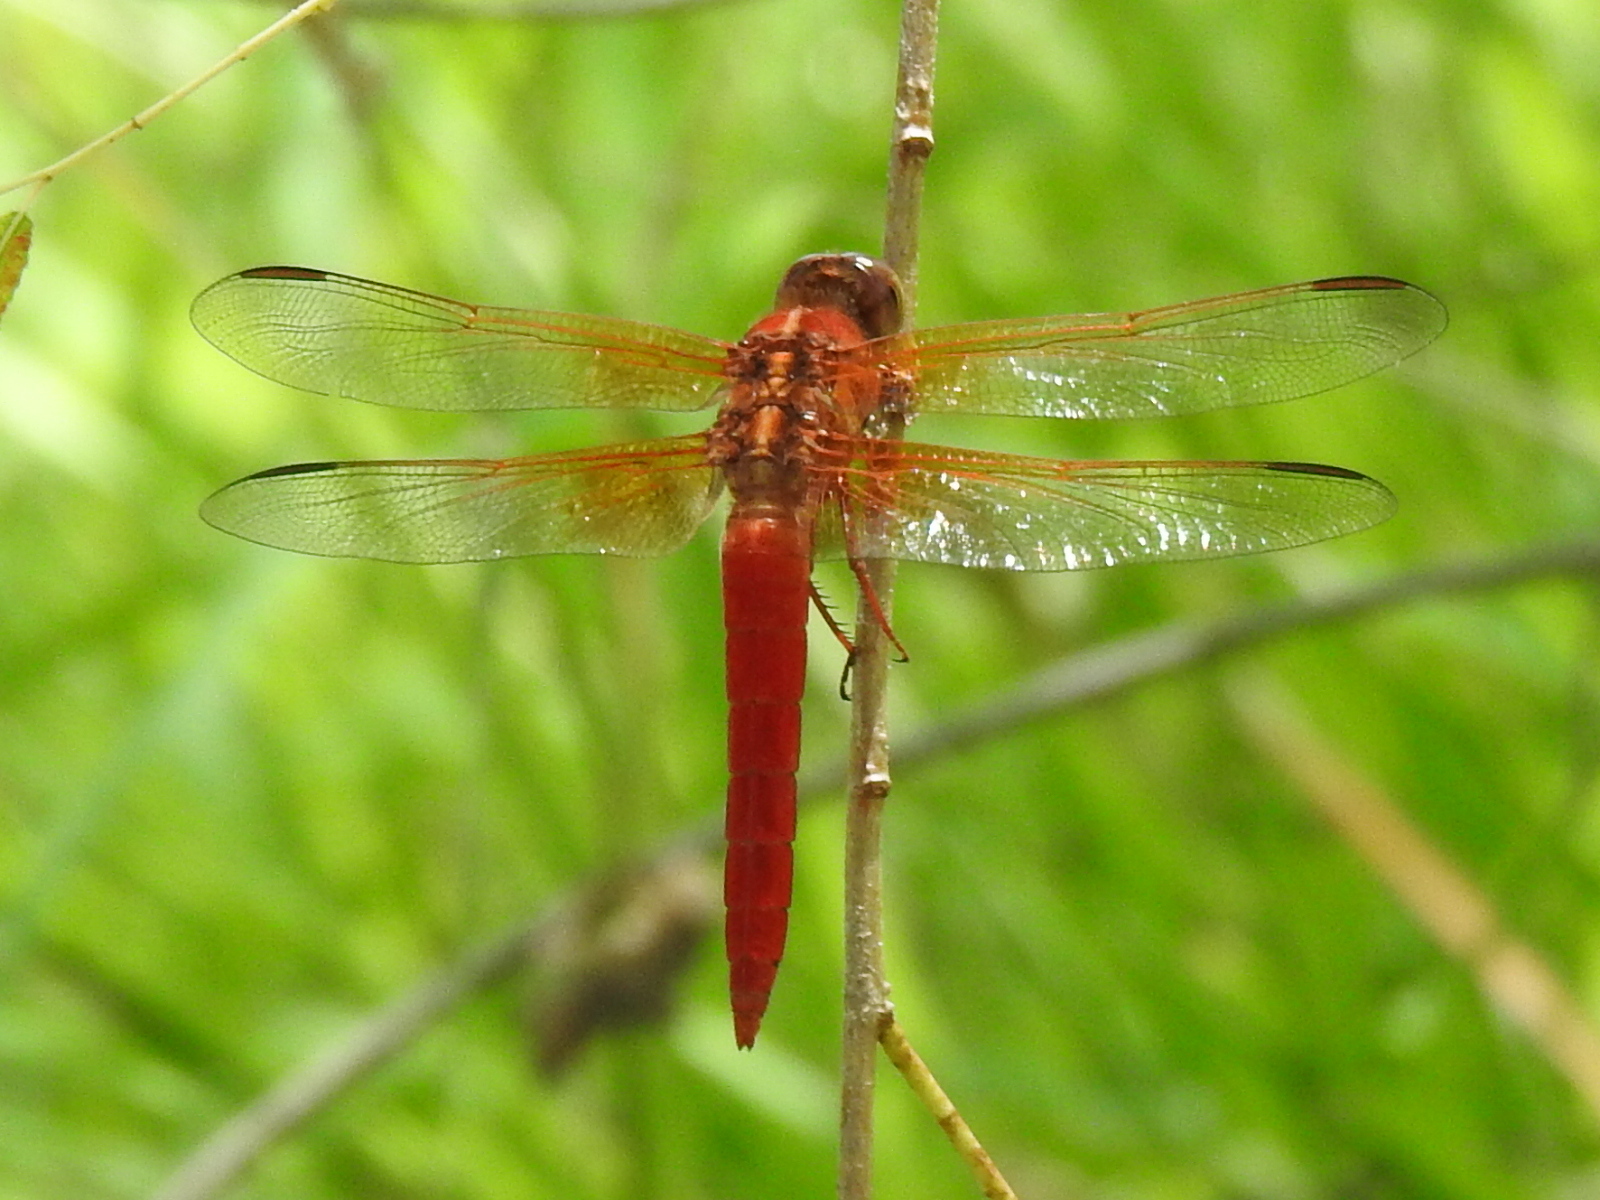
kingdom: Animalia
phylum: Arthropoda
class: Insecta
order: Odonata
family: Libellulidae
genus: Libellula
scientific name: Libellula croceipennis
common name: Neon skimmer
